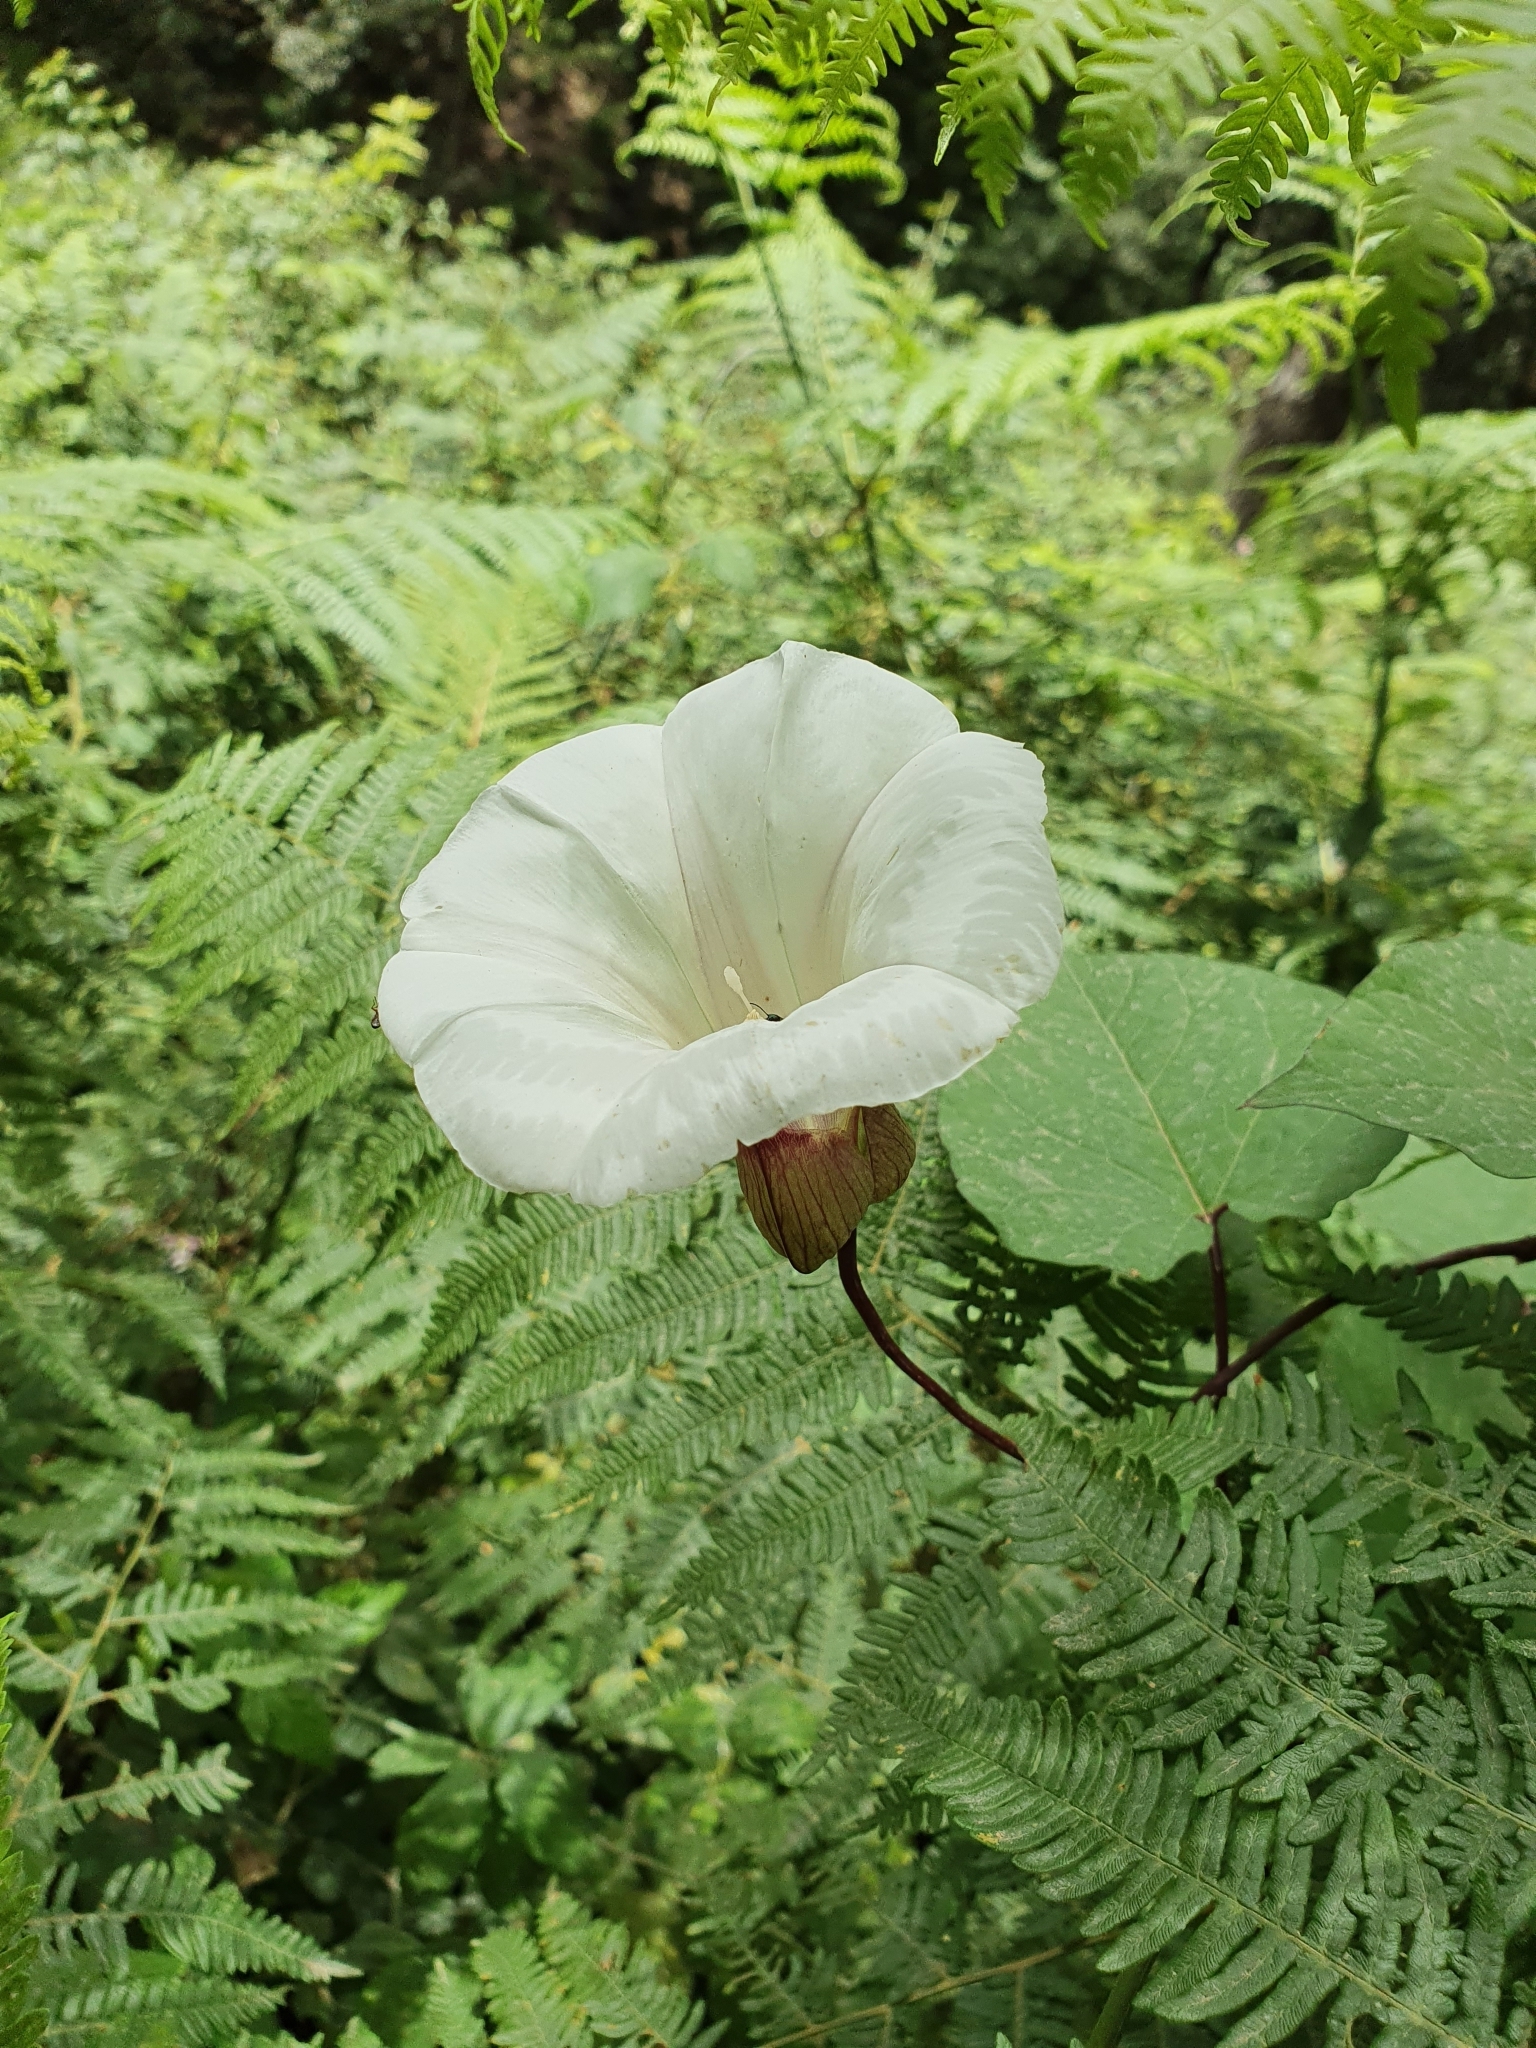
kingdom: Plantae
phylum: Tracheophyta
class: Magnoliopsida
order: Solanales
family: Convolvulaceae
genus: Calystegia
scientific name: Calystegia silvatica
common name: Large bindweed
